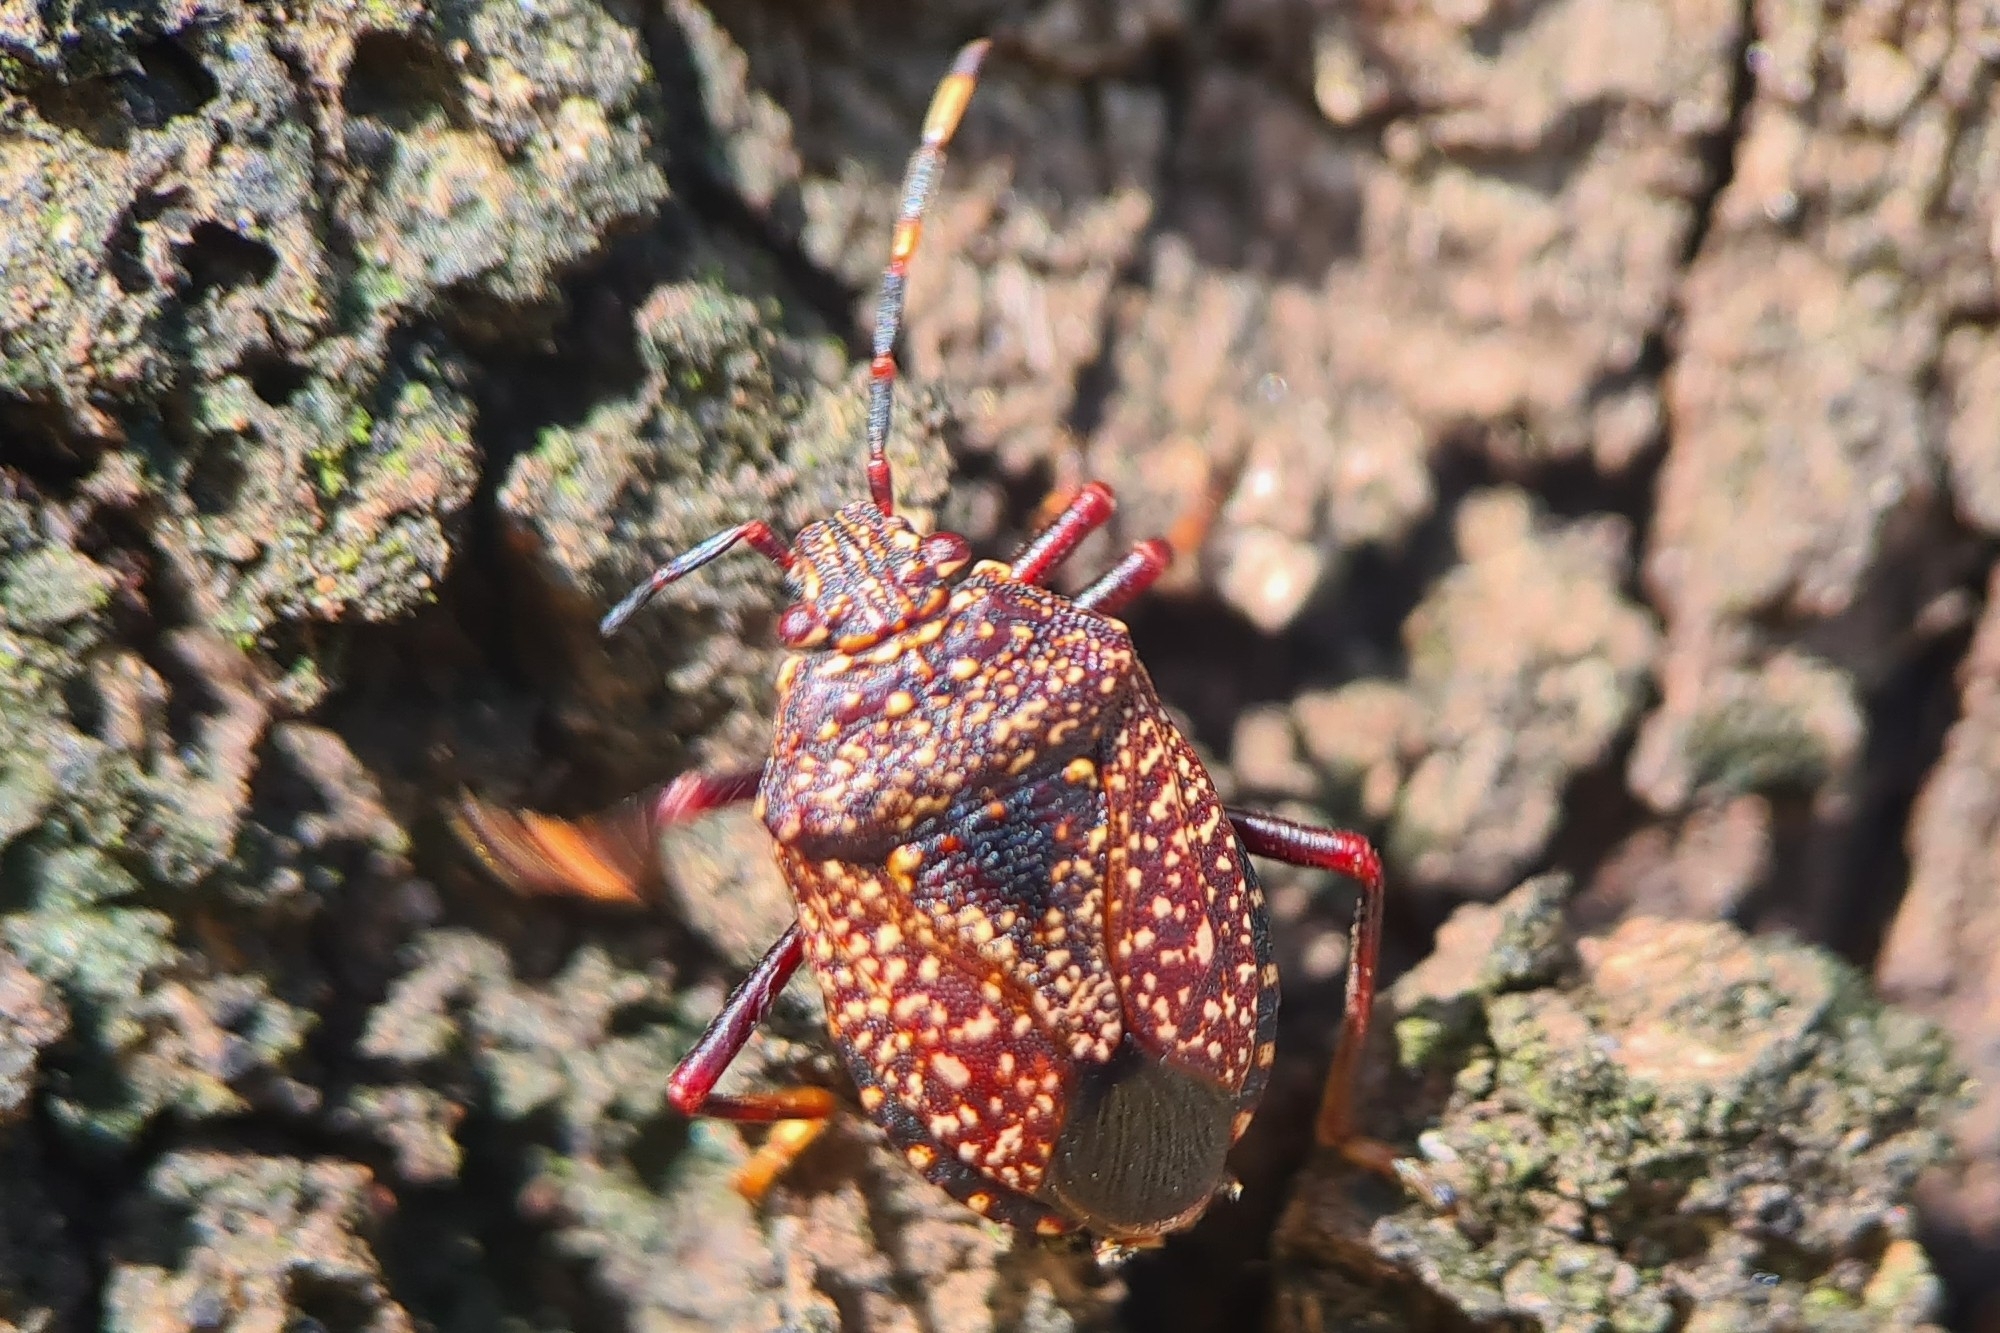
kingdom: Animalia
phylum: Arthropoda
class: Insecta
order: Hemiptera
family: Pentatomidae
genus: Notius
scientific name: Notius
